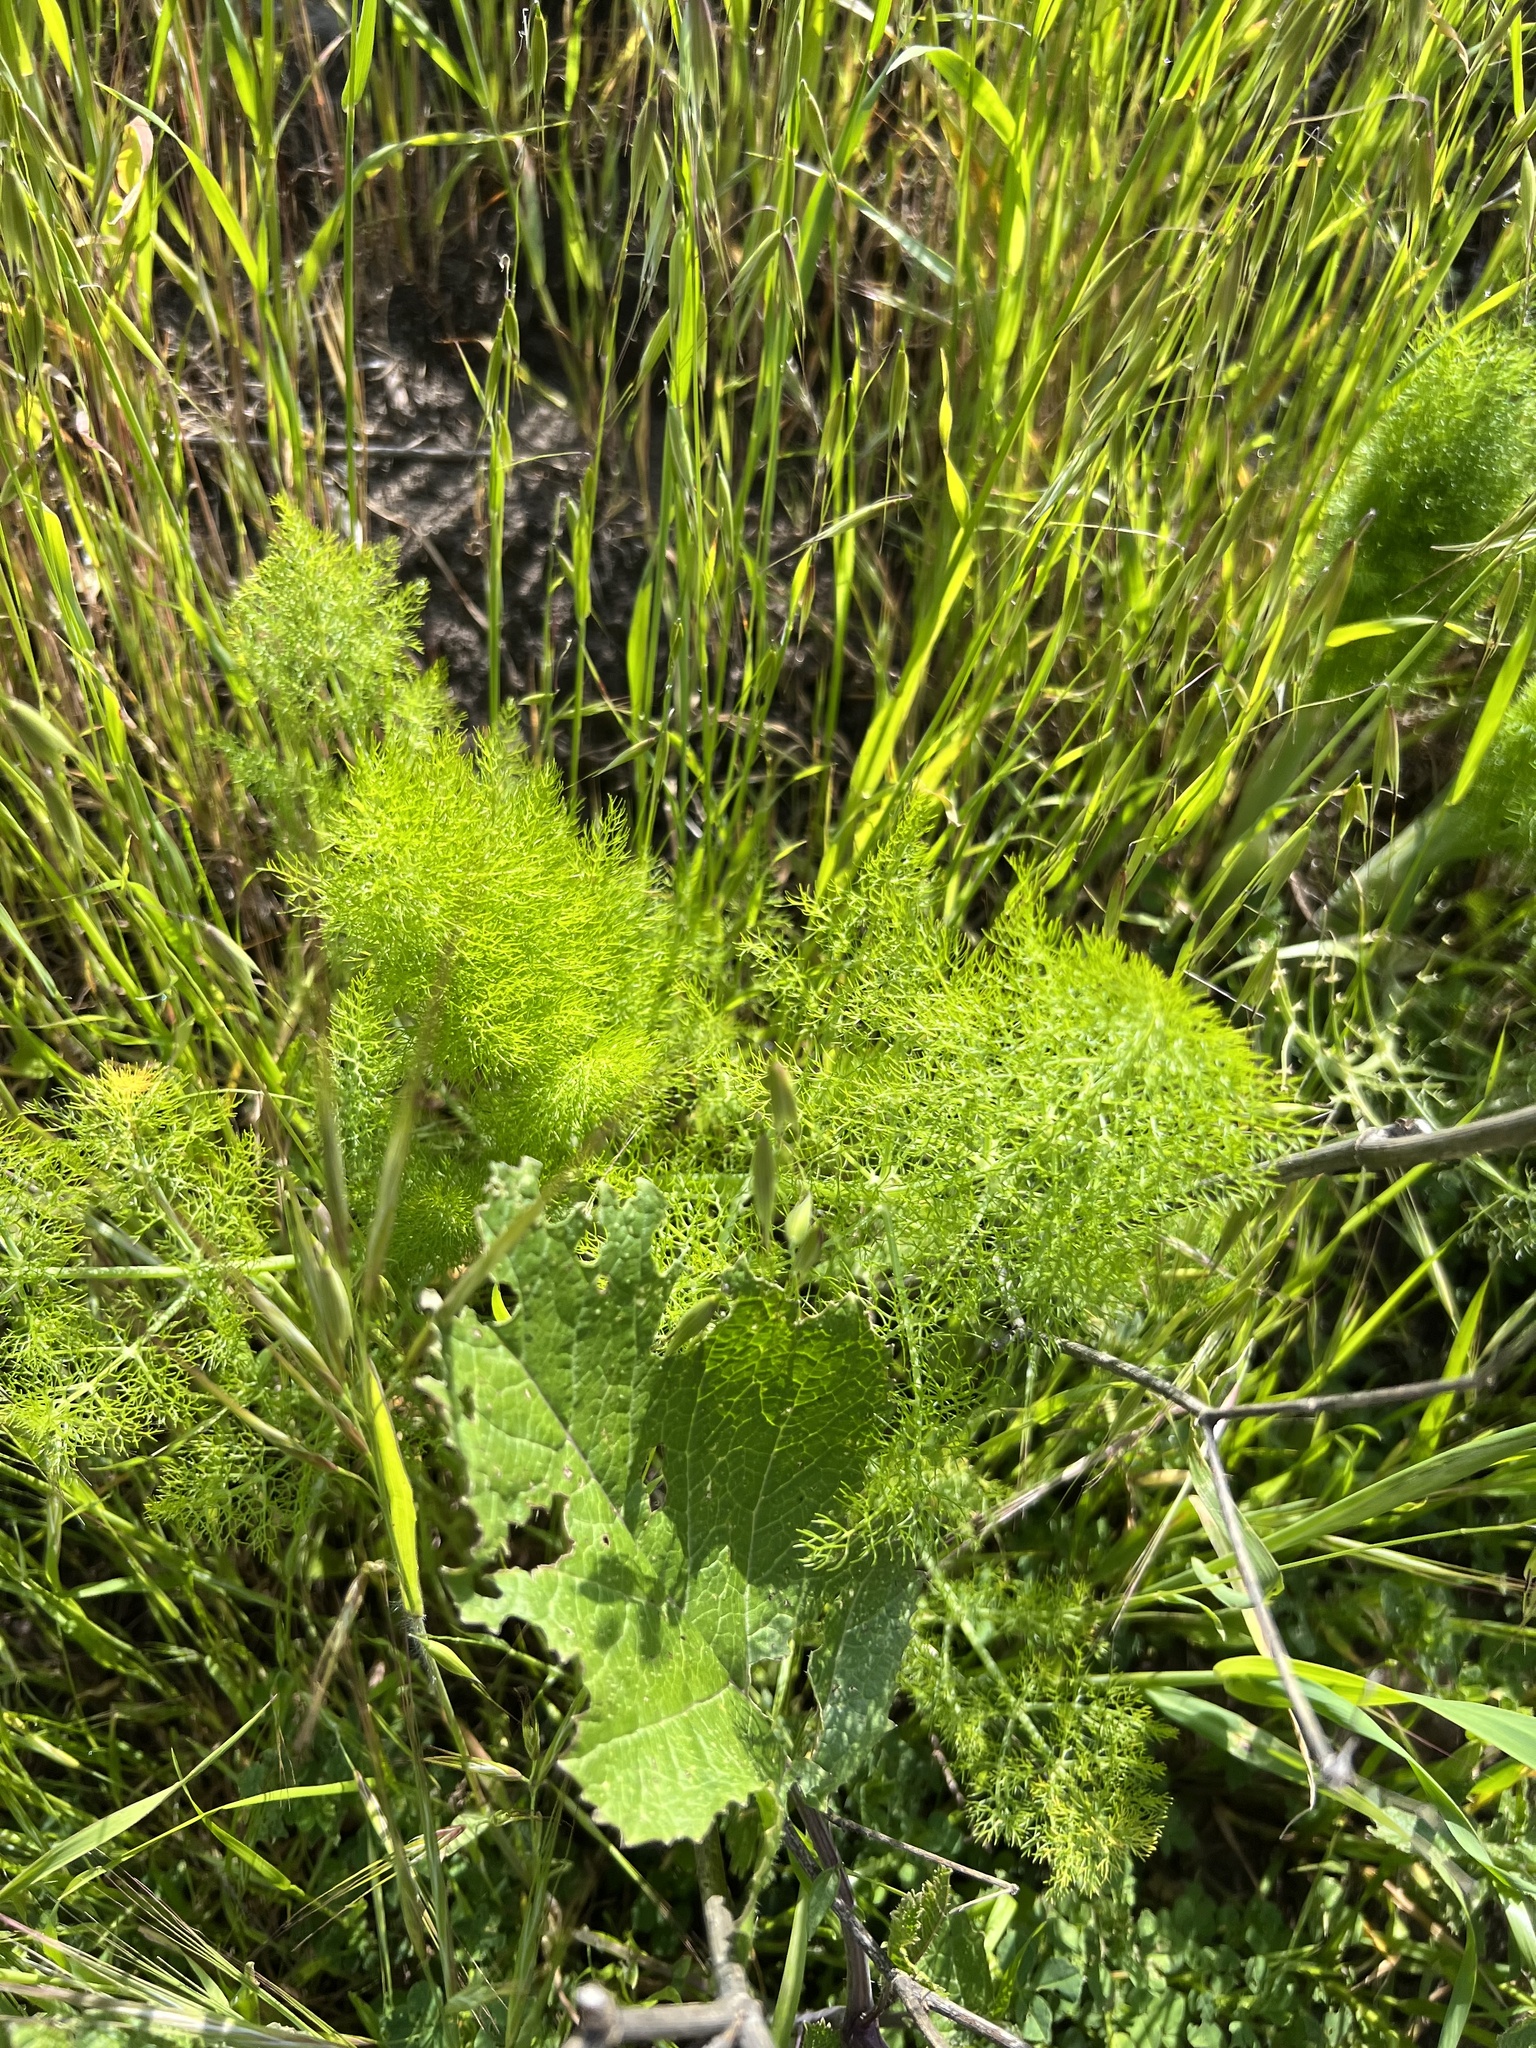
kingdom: Plantae
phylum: Tracheophyta
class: Magnoliopsida
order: Apiales
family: Apiaceae
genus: Foeniculum
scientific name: Foeniculum vulgare
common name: Fennel
